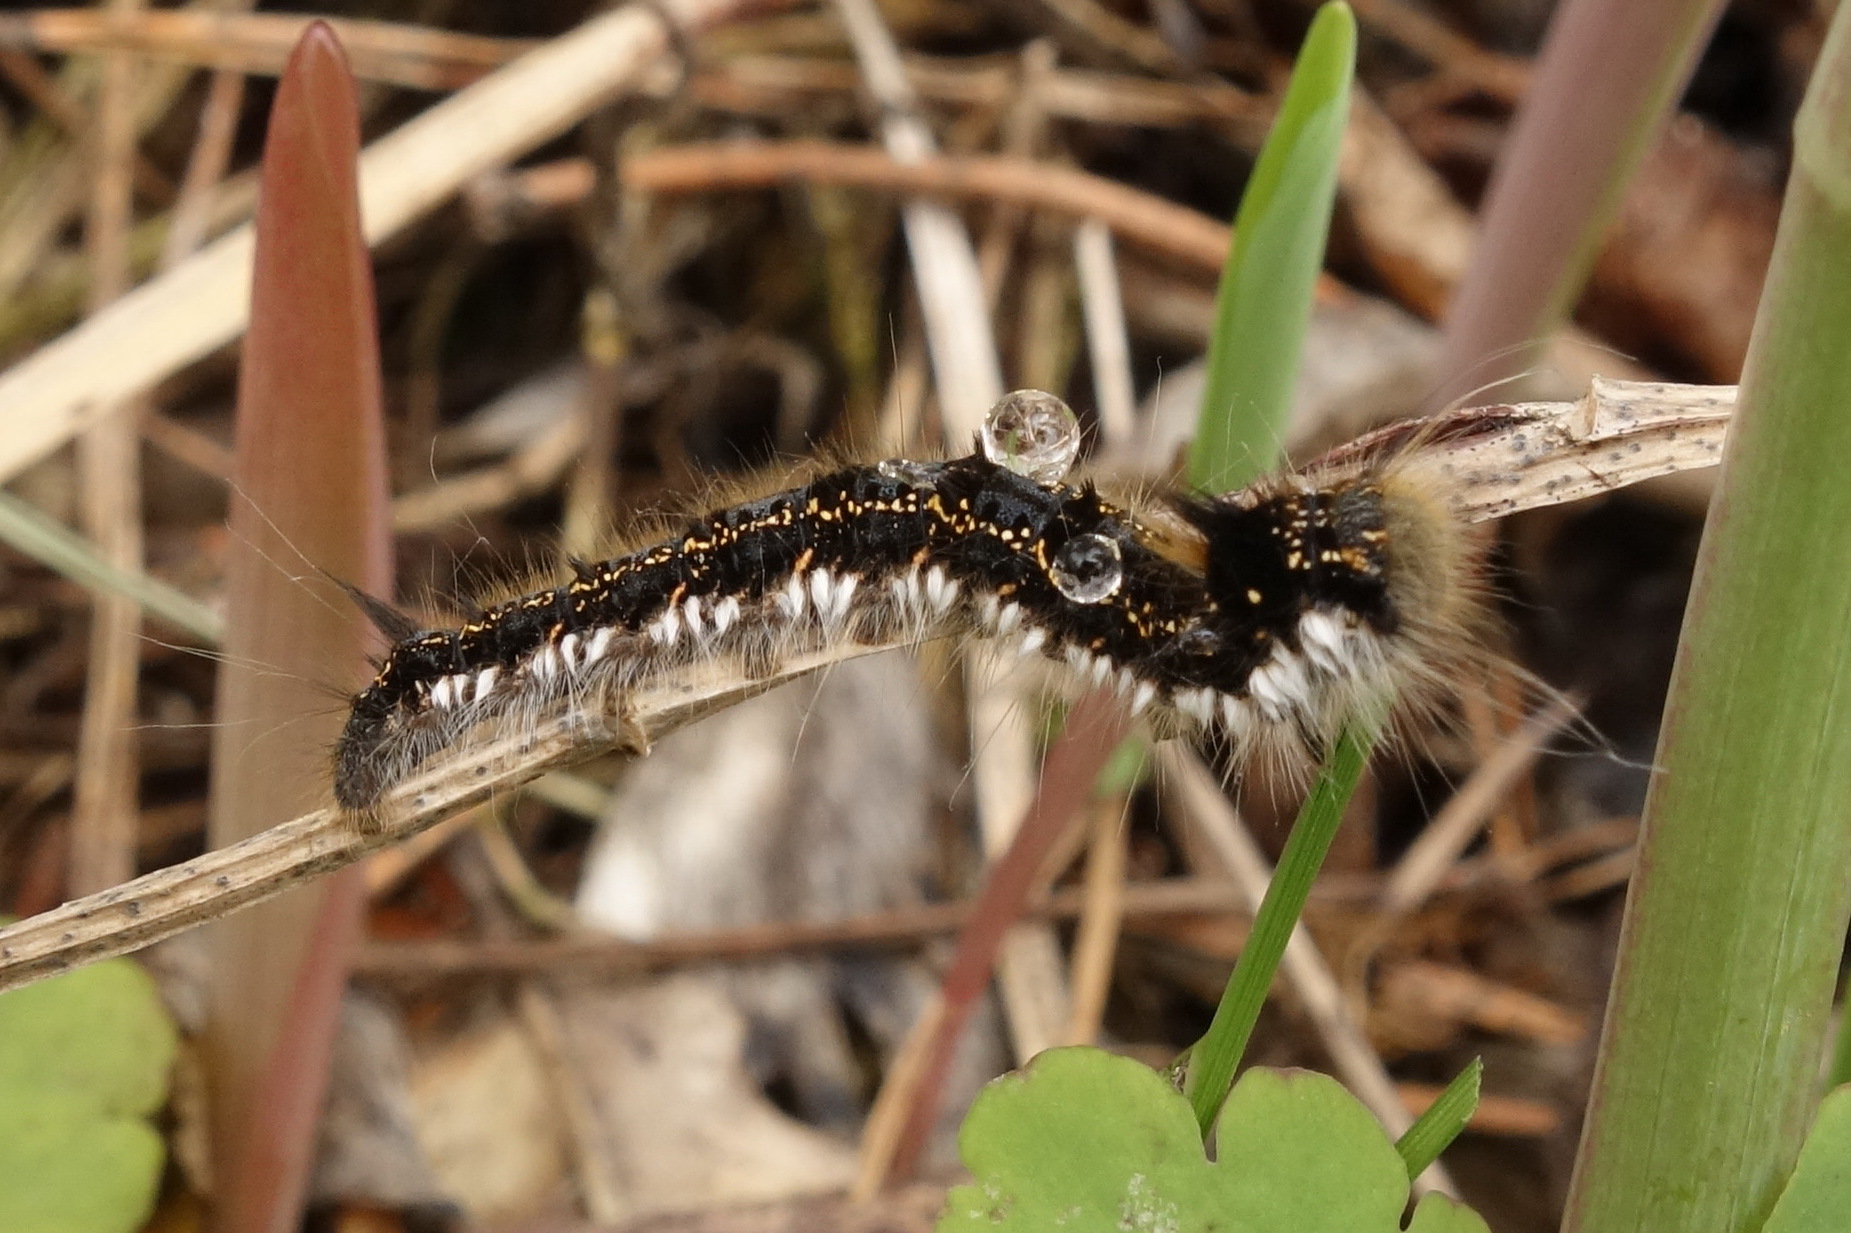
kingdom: Animalia
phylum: Arthropoda
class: Insecta
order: Lepidoptera
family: Lasiocampidae
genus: Euthrix
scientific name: Euthrix potatoria
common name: Drinker
